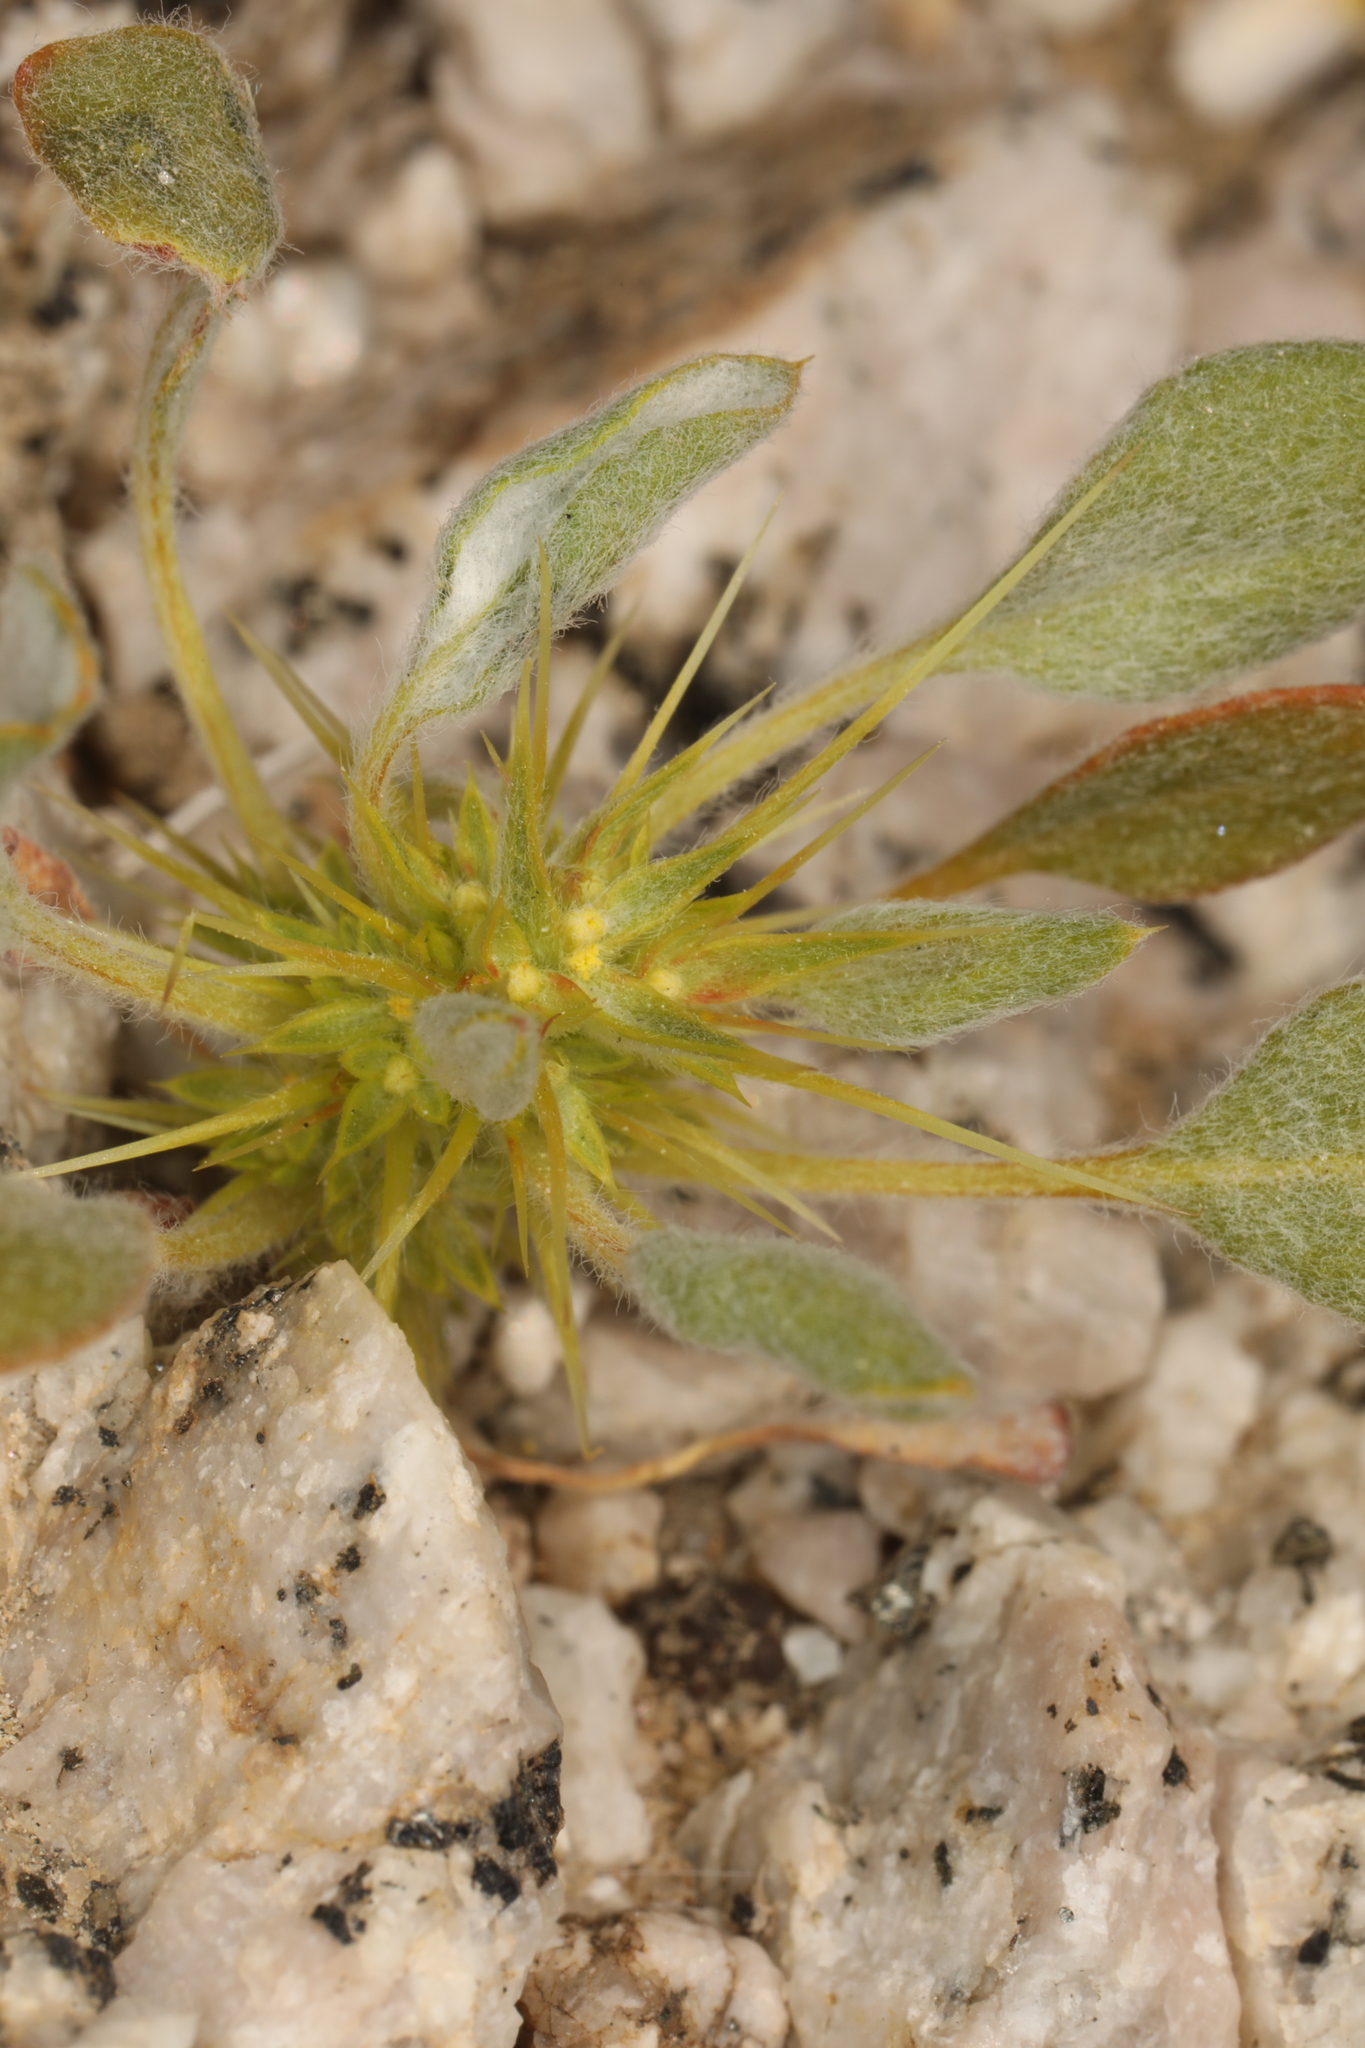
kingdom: Plantae
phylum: Tracheophyta
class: Magnoliopsida
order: Caryophyllales
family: Polygonaceae
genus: Chorizanthe
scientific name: Chorizanthe rigida
